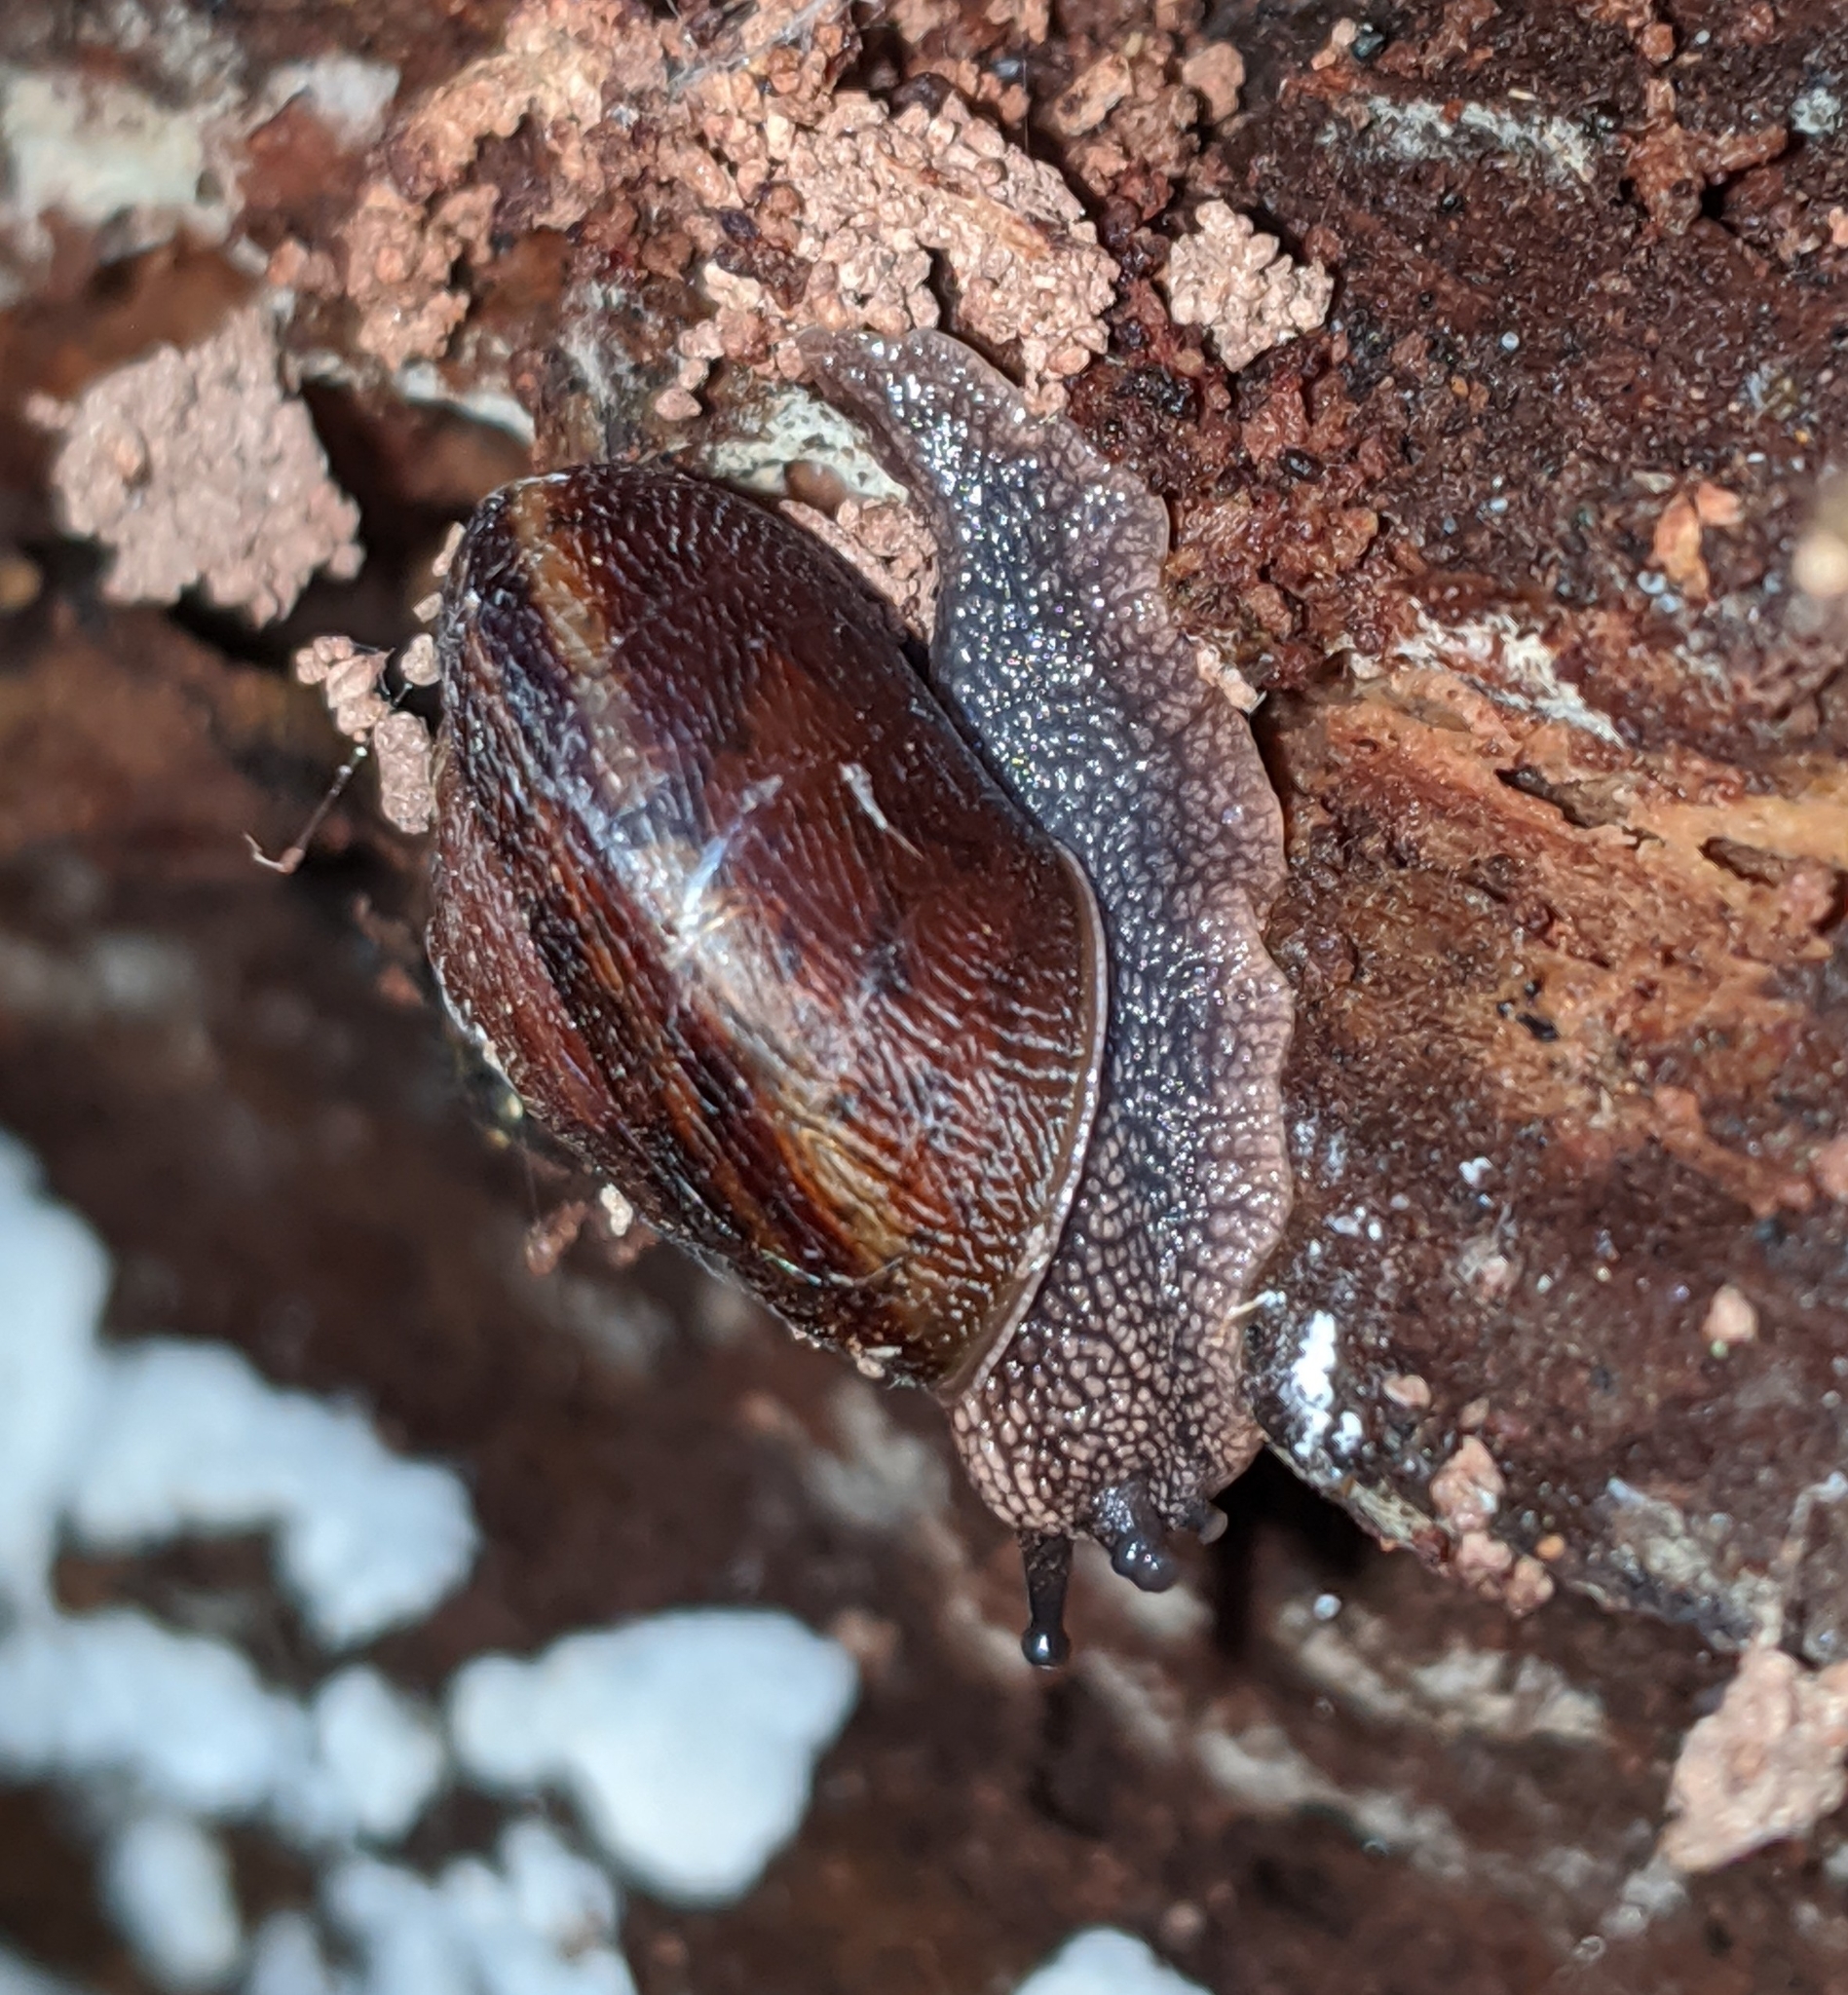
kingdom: Animalia
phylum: Mollusca
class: Gastropoda
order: Stylommatophora
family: Xanthonychidae
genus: Monadenia
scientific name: Monadenia fidelis
